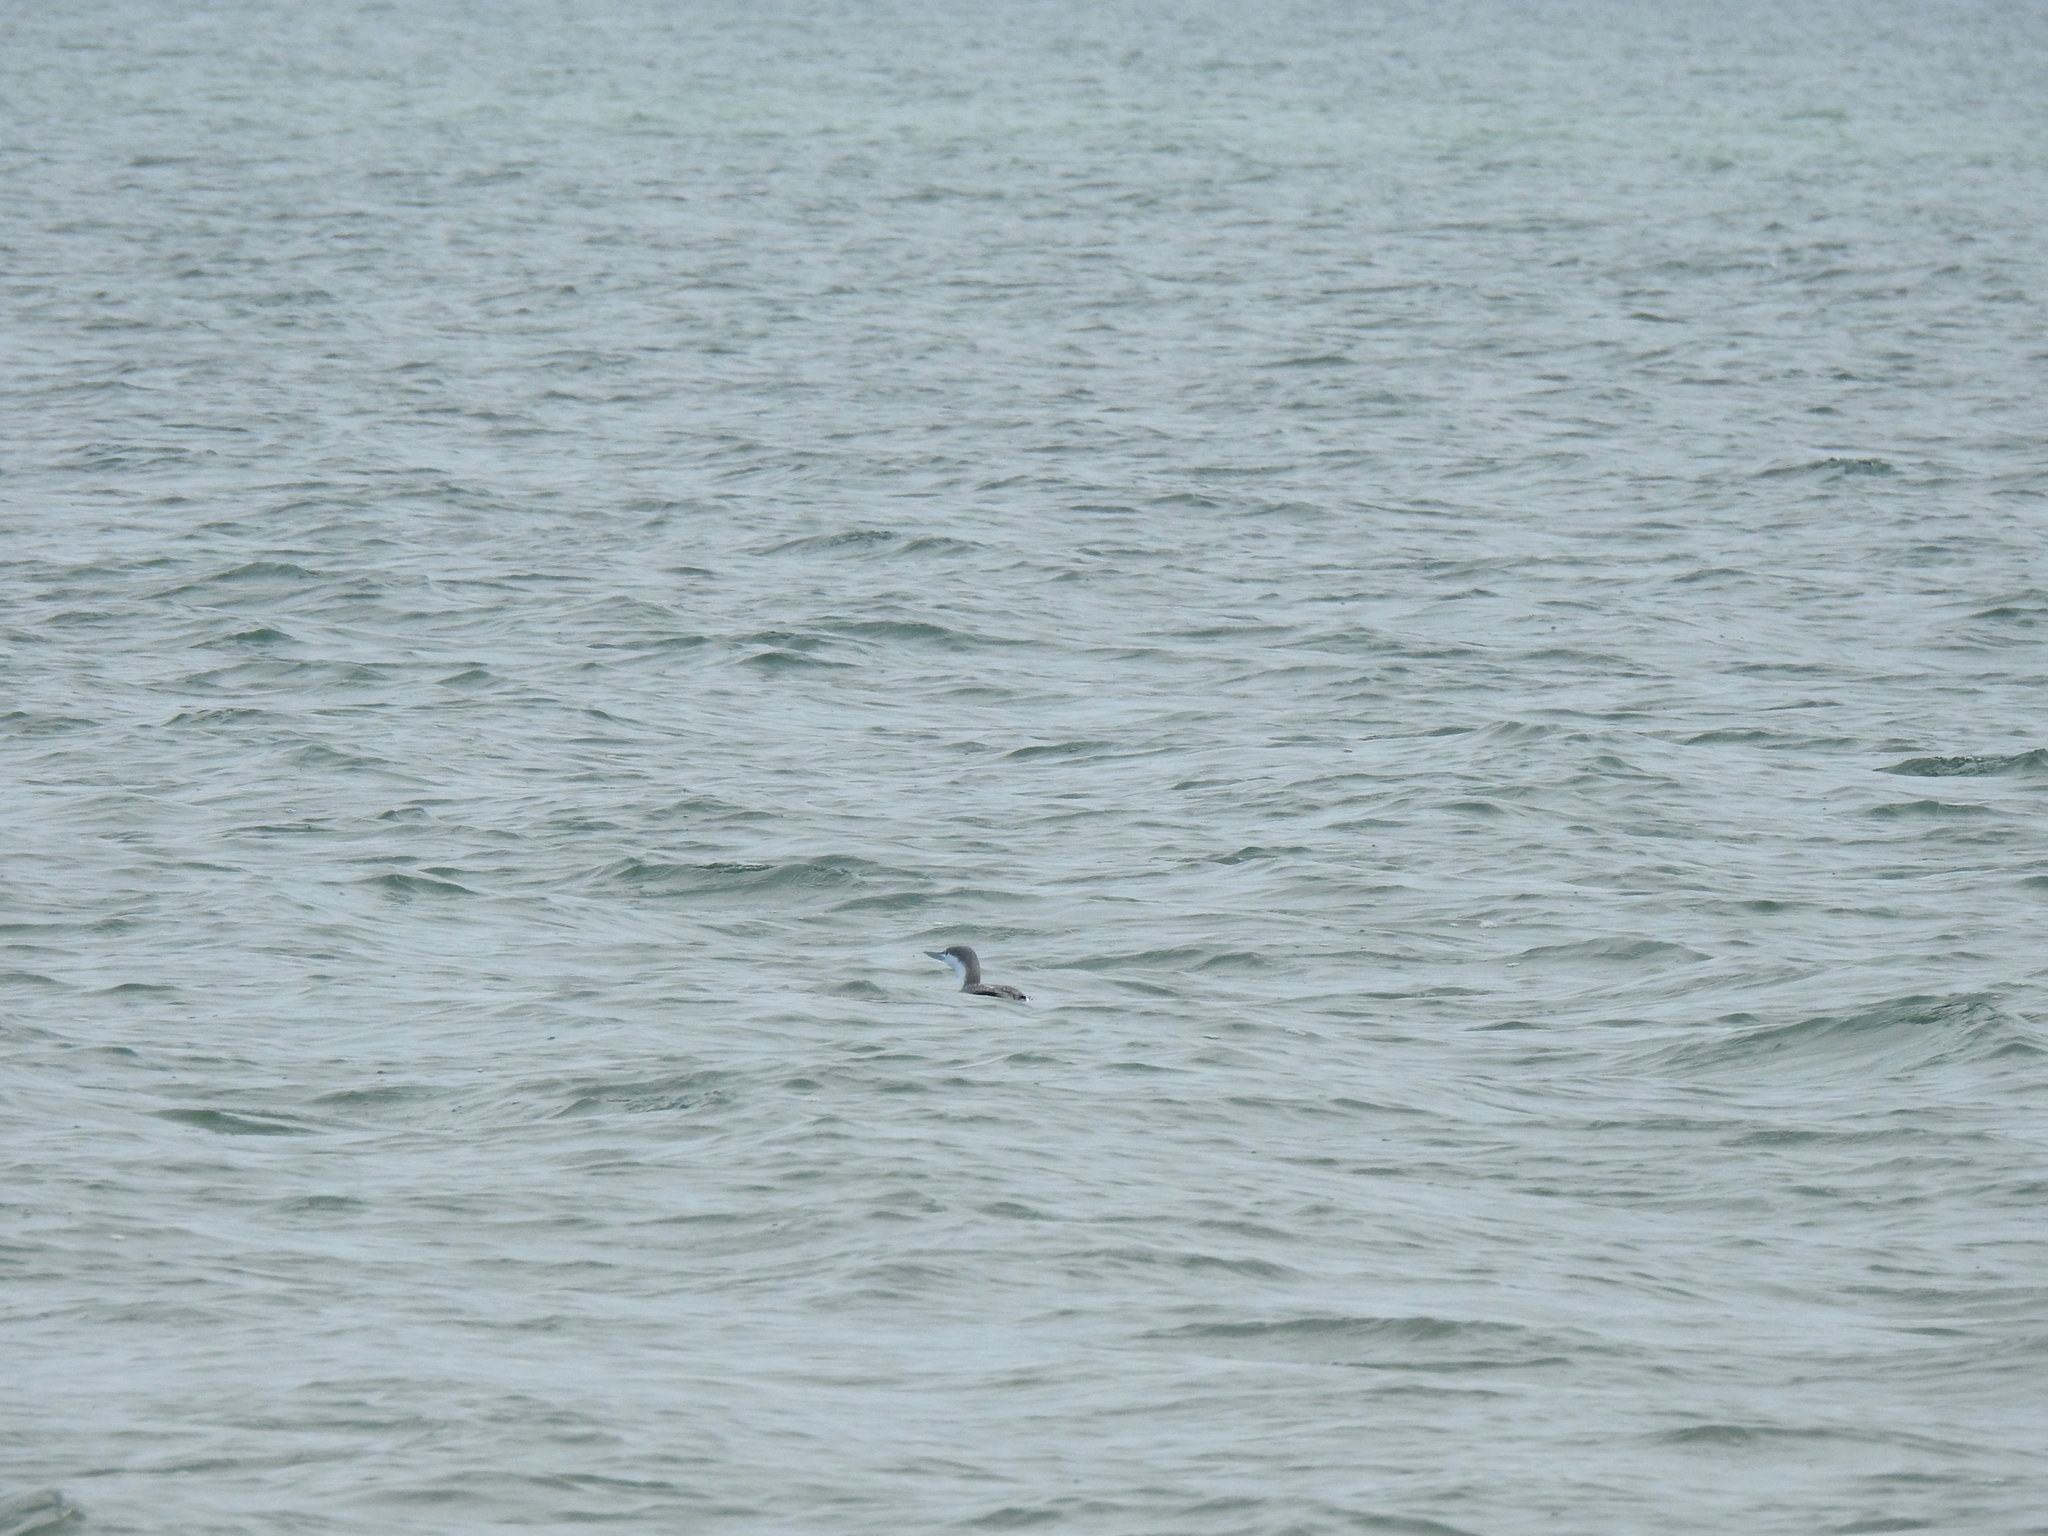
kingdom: Animalia
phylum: Chordata
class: Aves
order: Gaviiformes
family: Gaviidae
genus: Gavia
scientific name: Gavia stellata
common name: Red-throated loon
